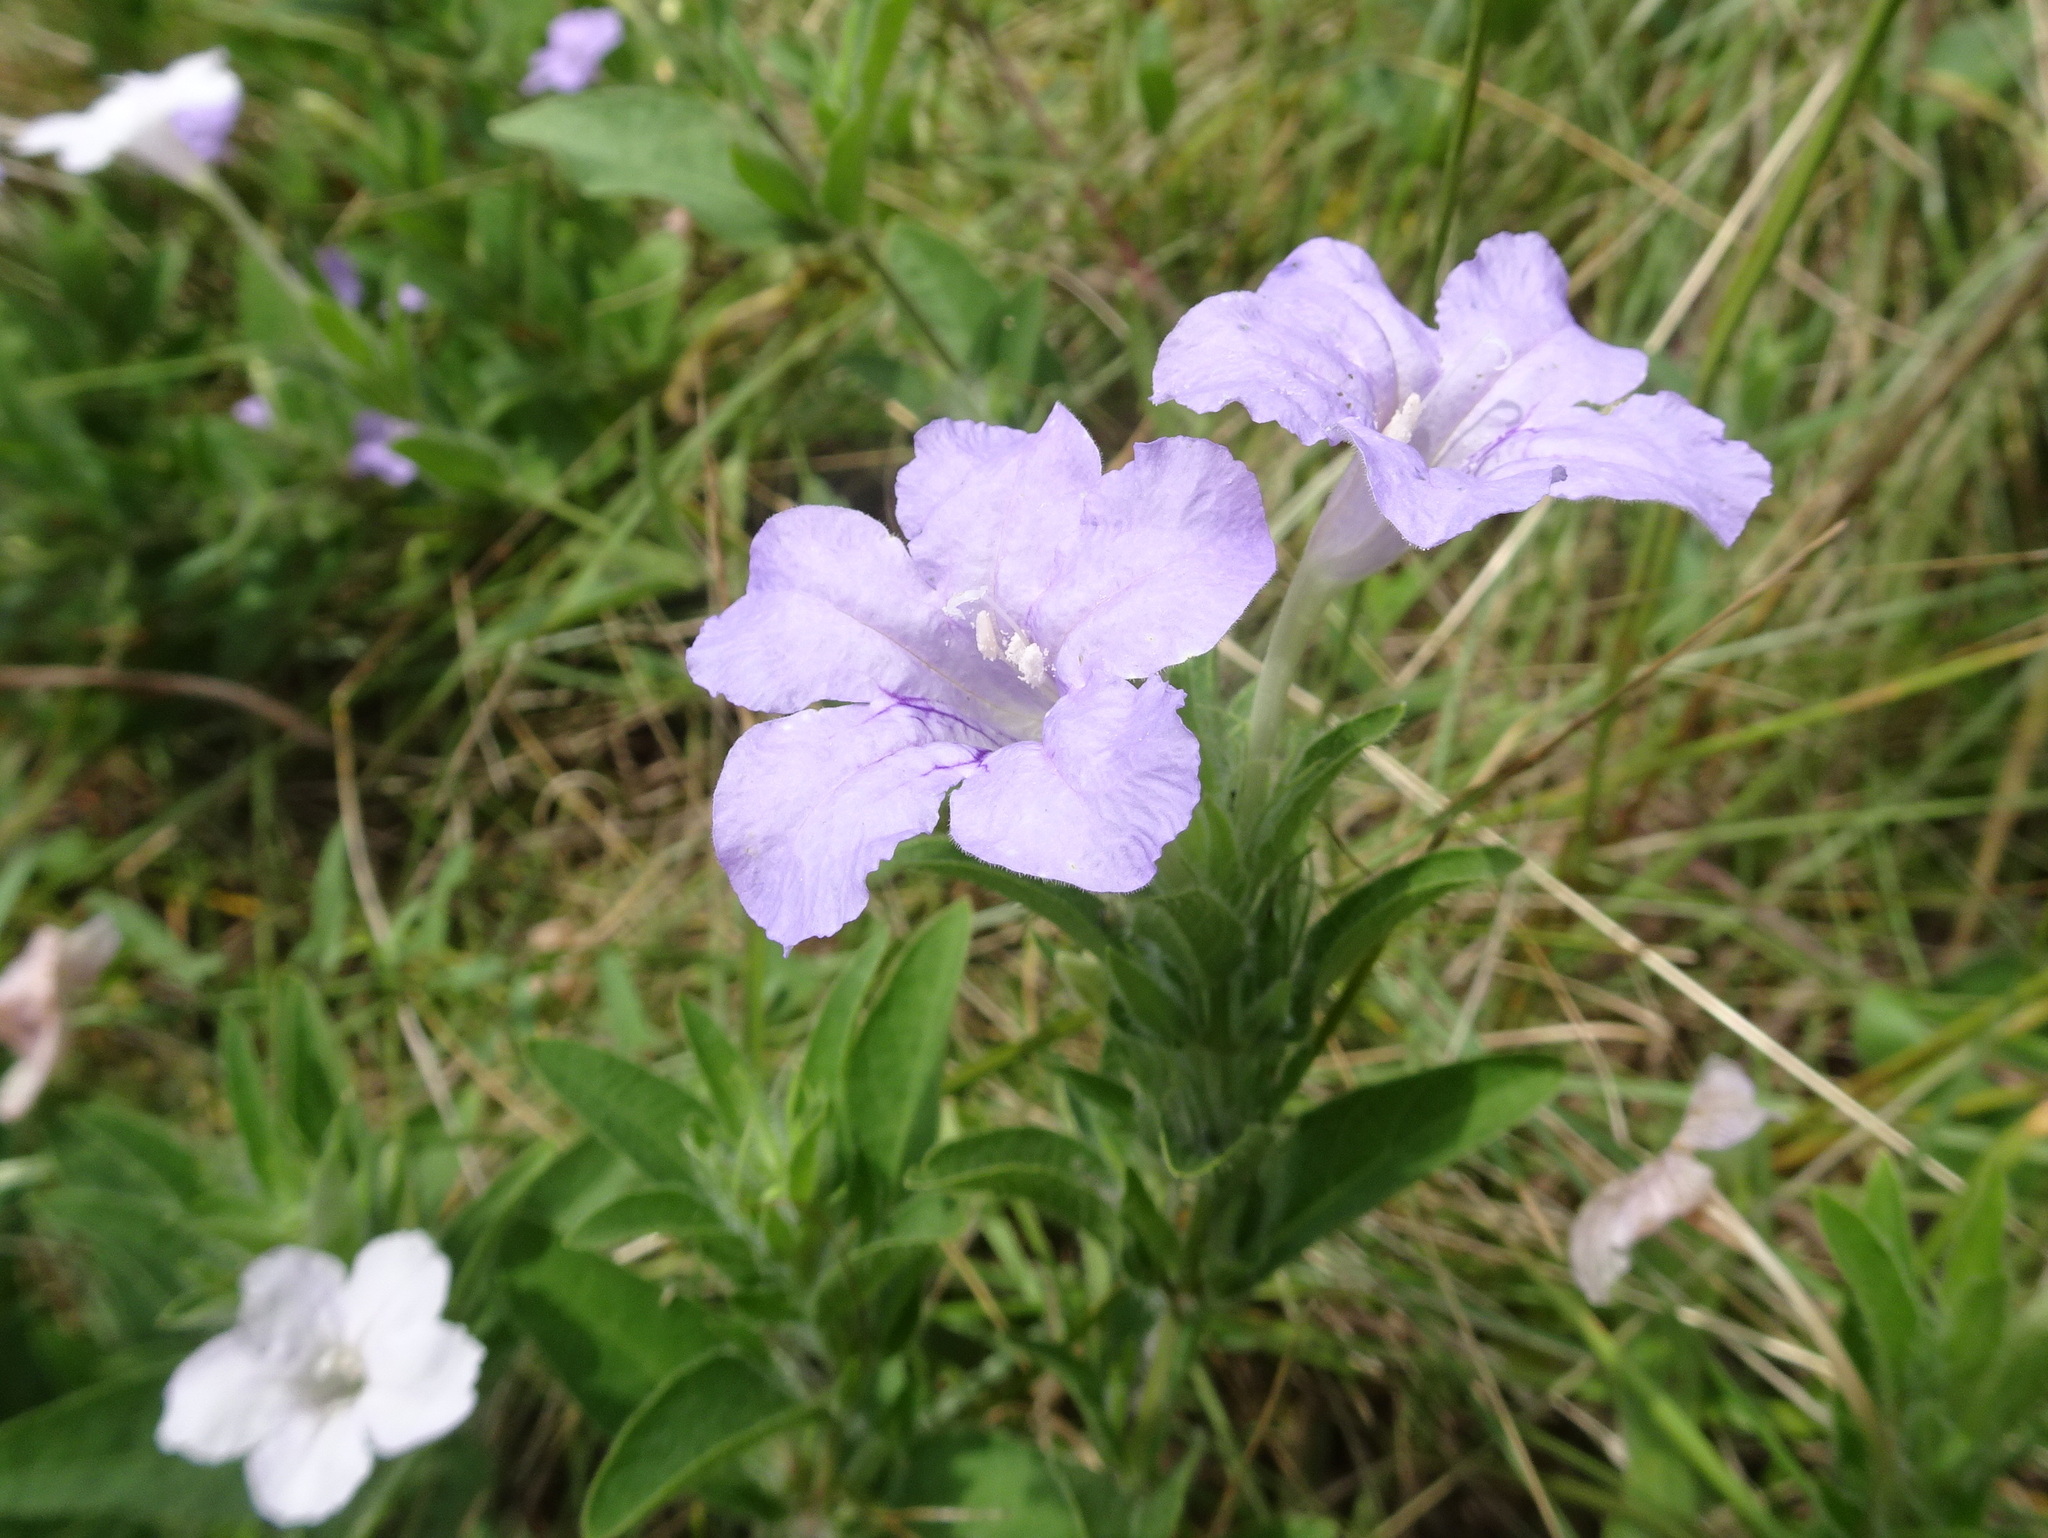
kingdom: Plantae
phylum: Tracheophyta
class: Magnoliopsida
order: Lamiales
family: Acanthaceae
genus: Ruellia
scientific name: Ruellia humilis
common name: Fringe-leaf ruellia
